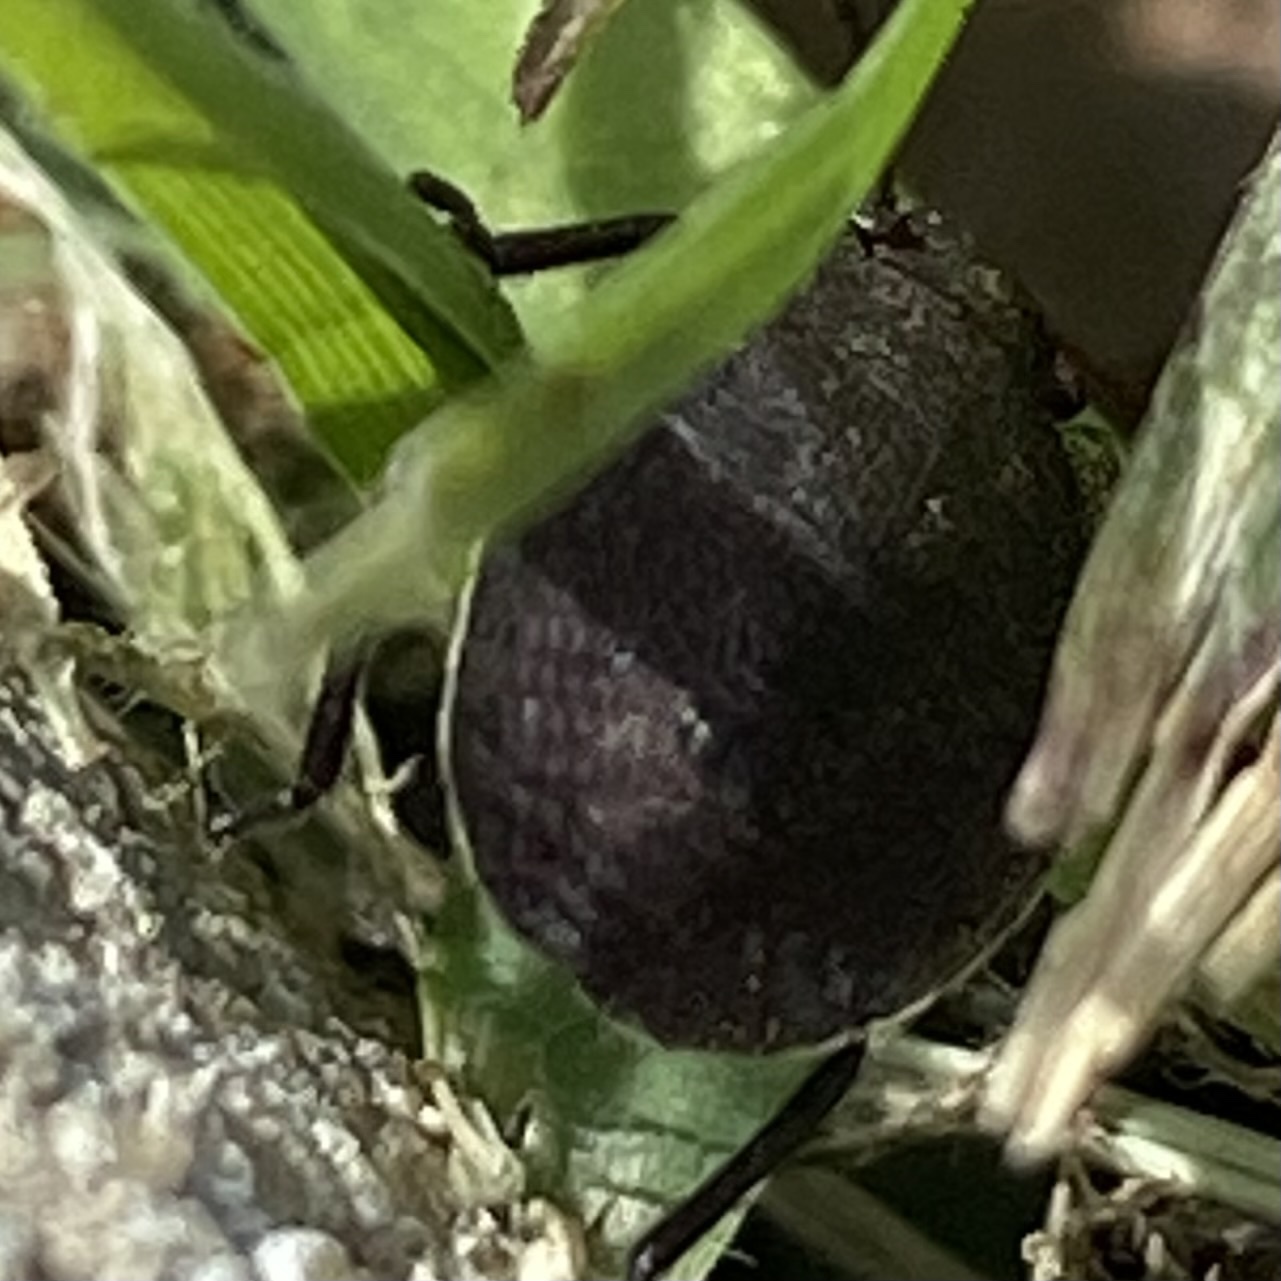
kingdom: Animalia
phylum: Arthropoda
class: Insecta
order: Hemiptera
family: Pentatomidae
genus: Menecles
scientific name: Menecles insertus
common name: Elf shoe stink bug
